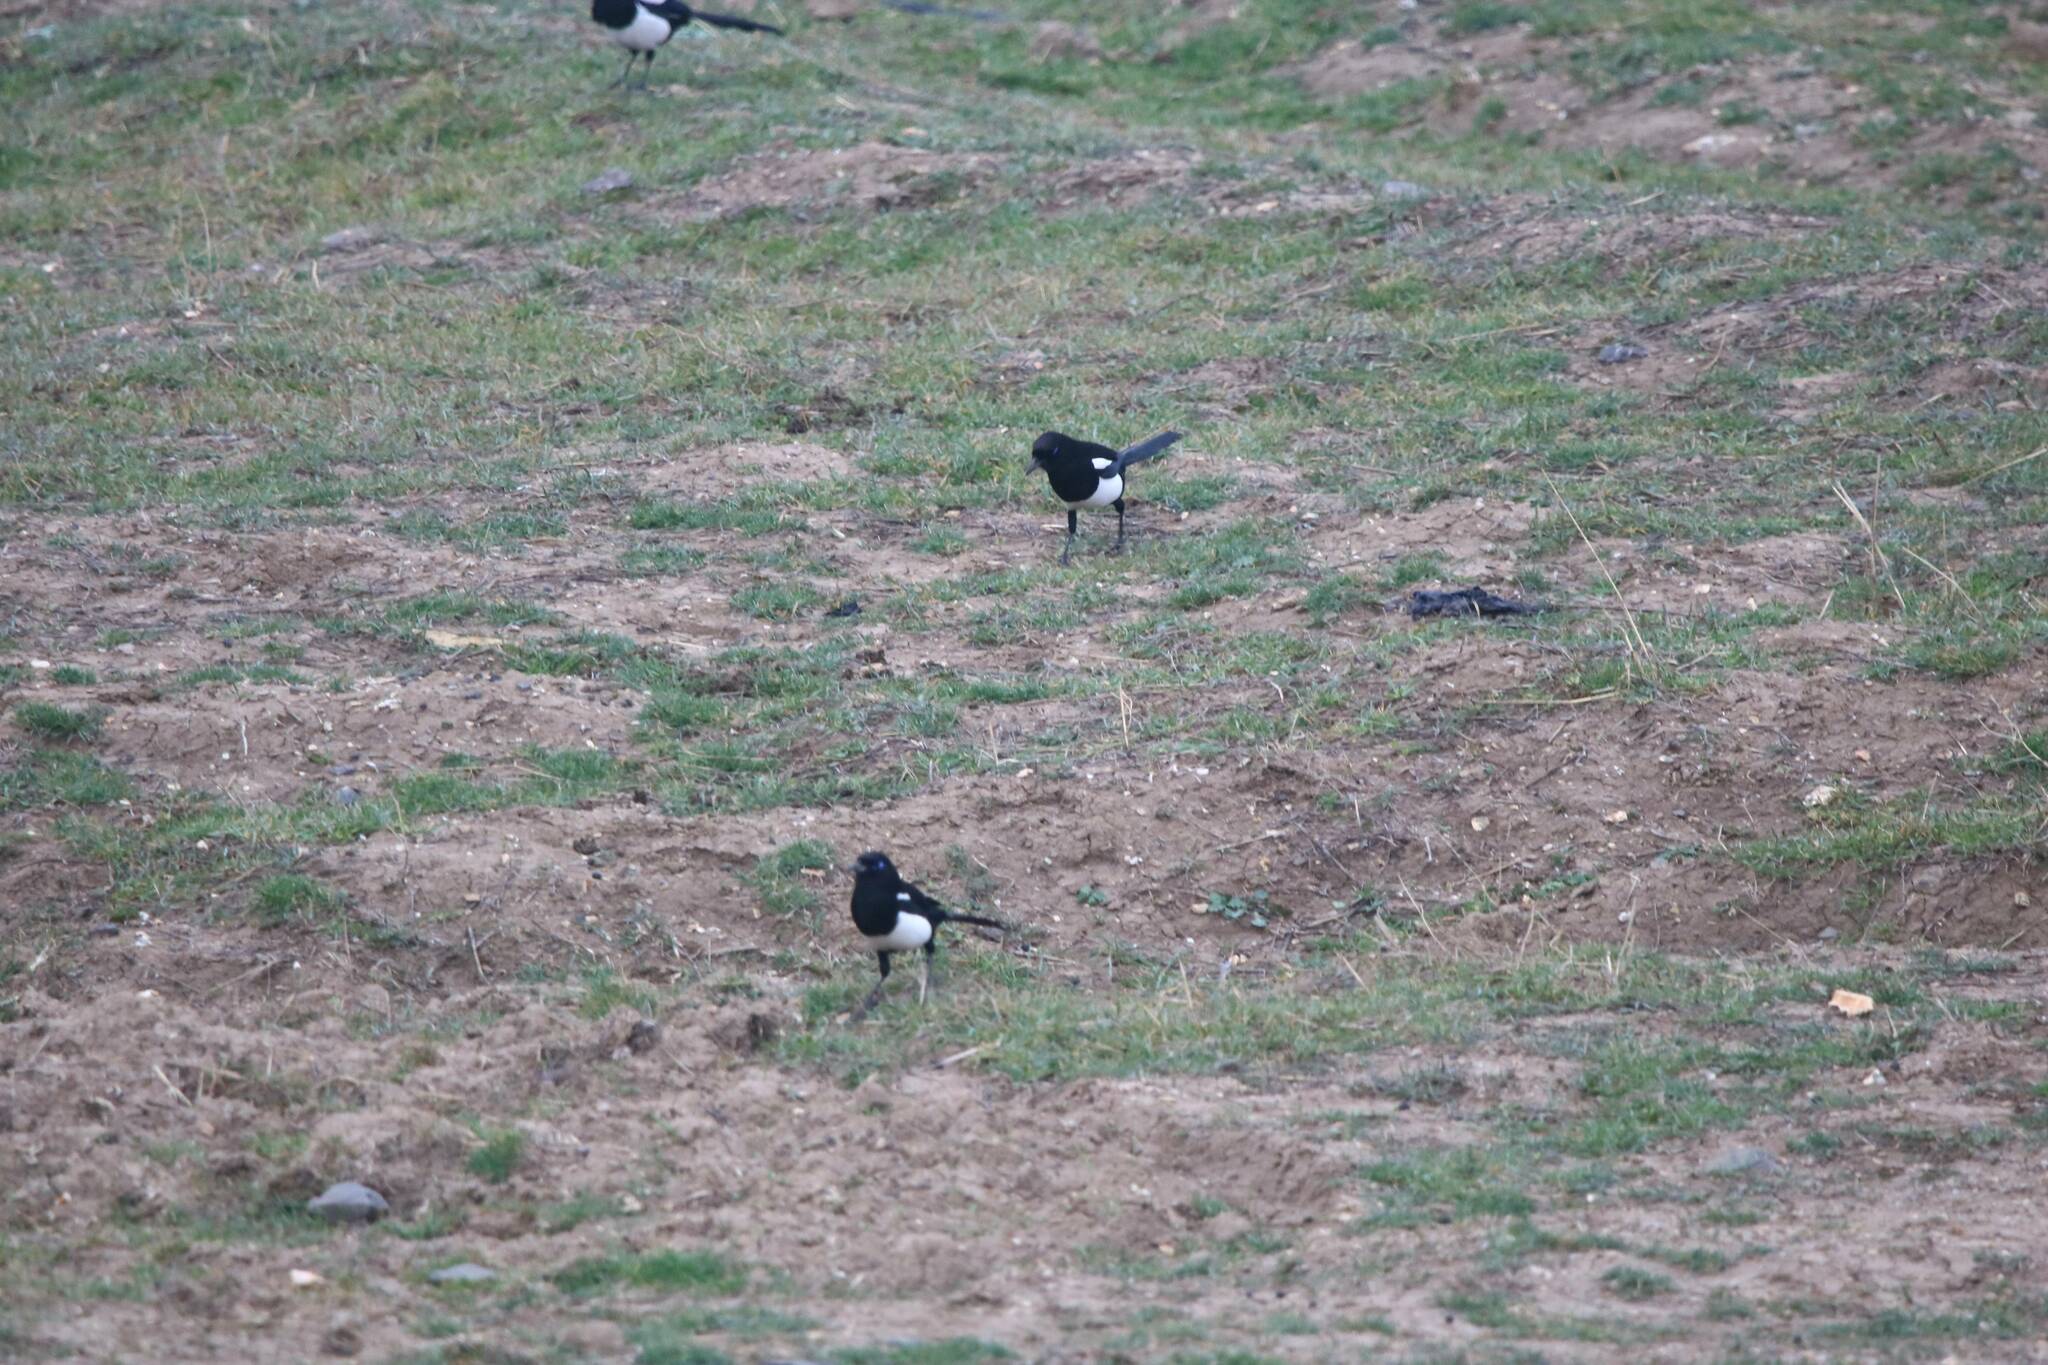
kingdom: Animalia
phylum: Chordata
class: Aves
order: Passeriformes
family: Corvidae
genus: Pica
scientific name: Pica mauritanica
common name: Maghreb magpie
